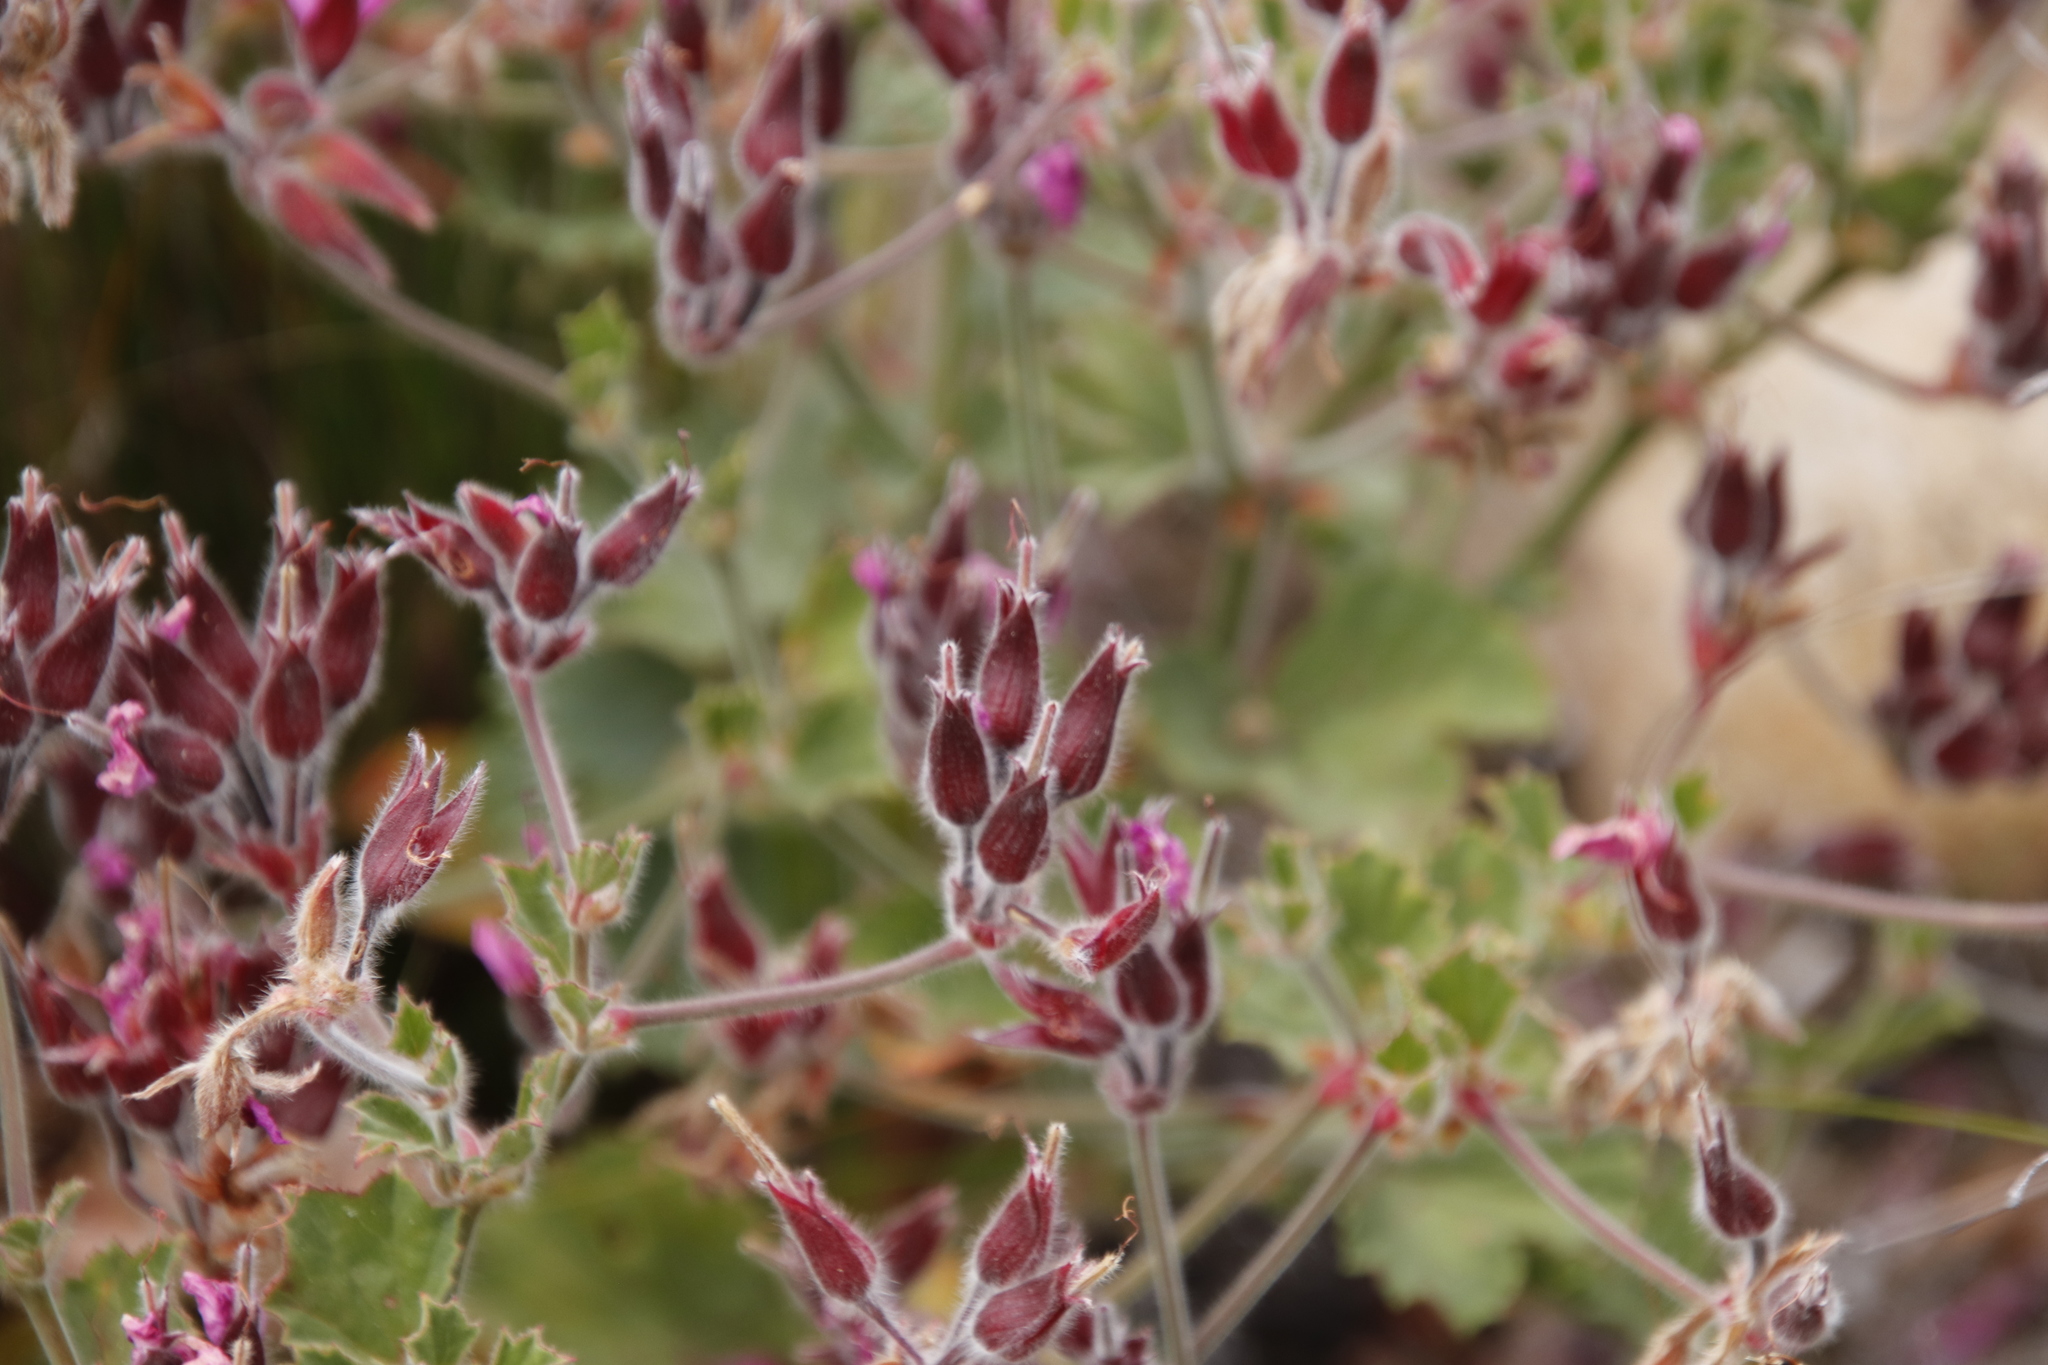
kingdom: Plantae
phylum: Tracheophyta
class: Magnoliopsida
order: Geraniales
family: Geraniaceae
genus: Pelargonium
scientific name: Pelargonium cucullatum
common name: Tree pelargonium
